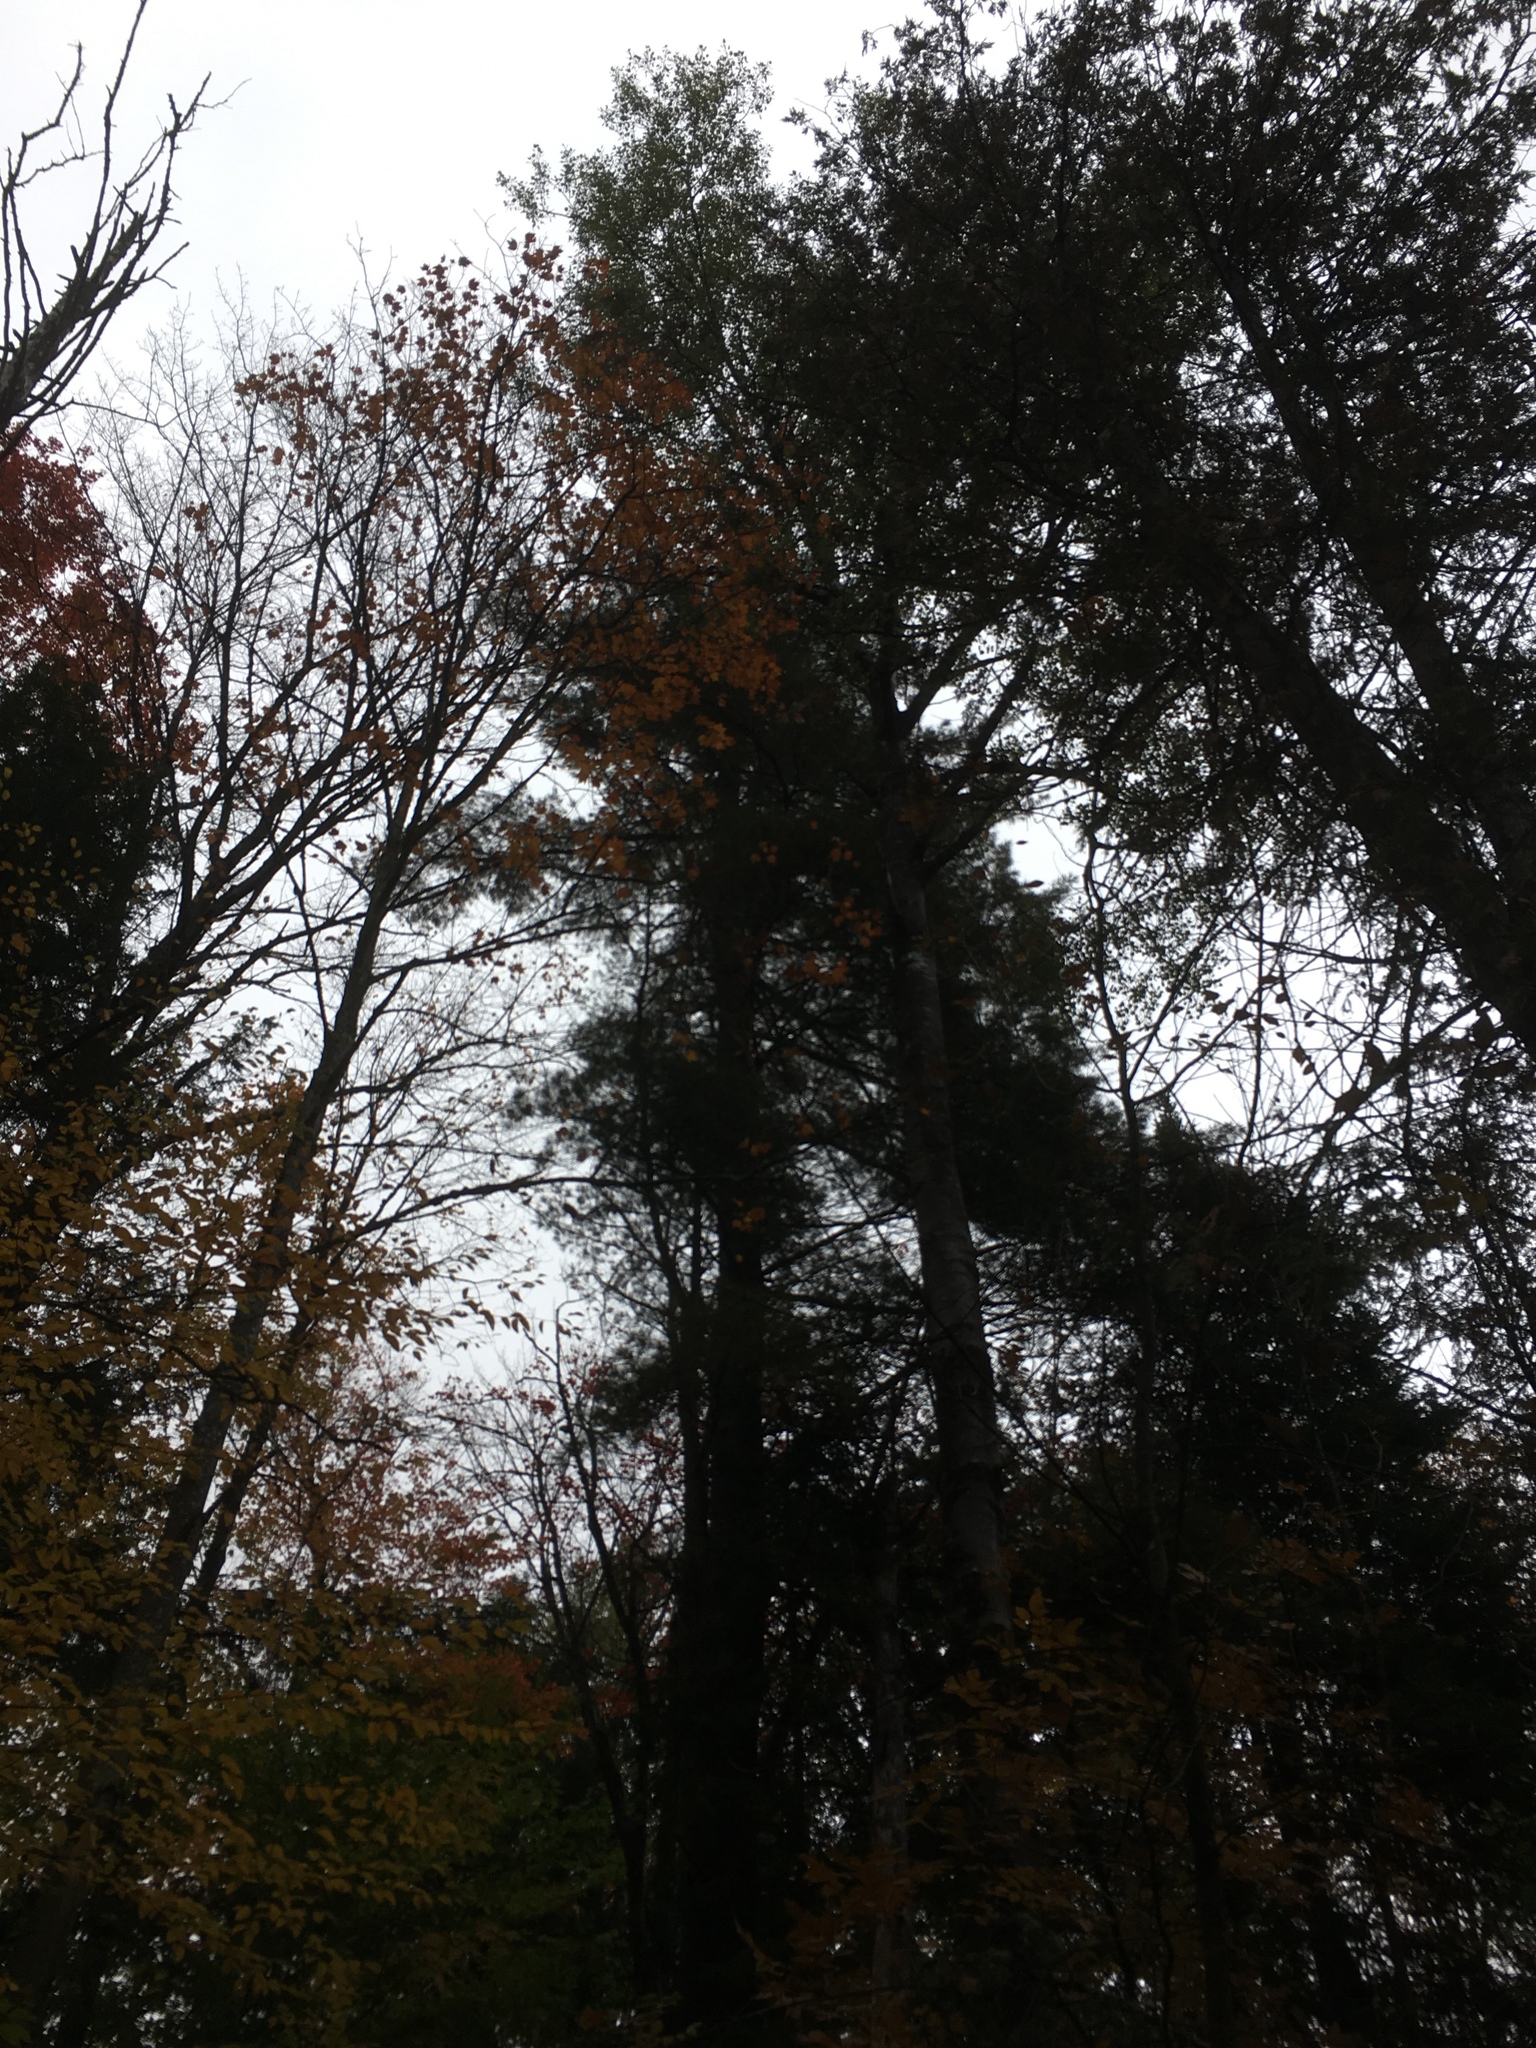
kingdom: Plantae
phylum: Tracheophyta
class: Pinopsida
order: Pinales
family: Pinaceae
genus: Pinus
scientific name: Pinus strobus
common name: Weymouth pine
